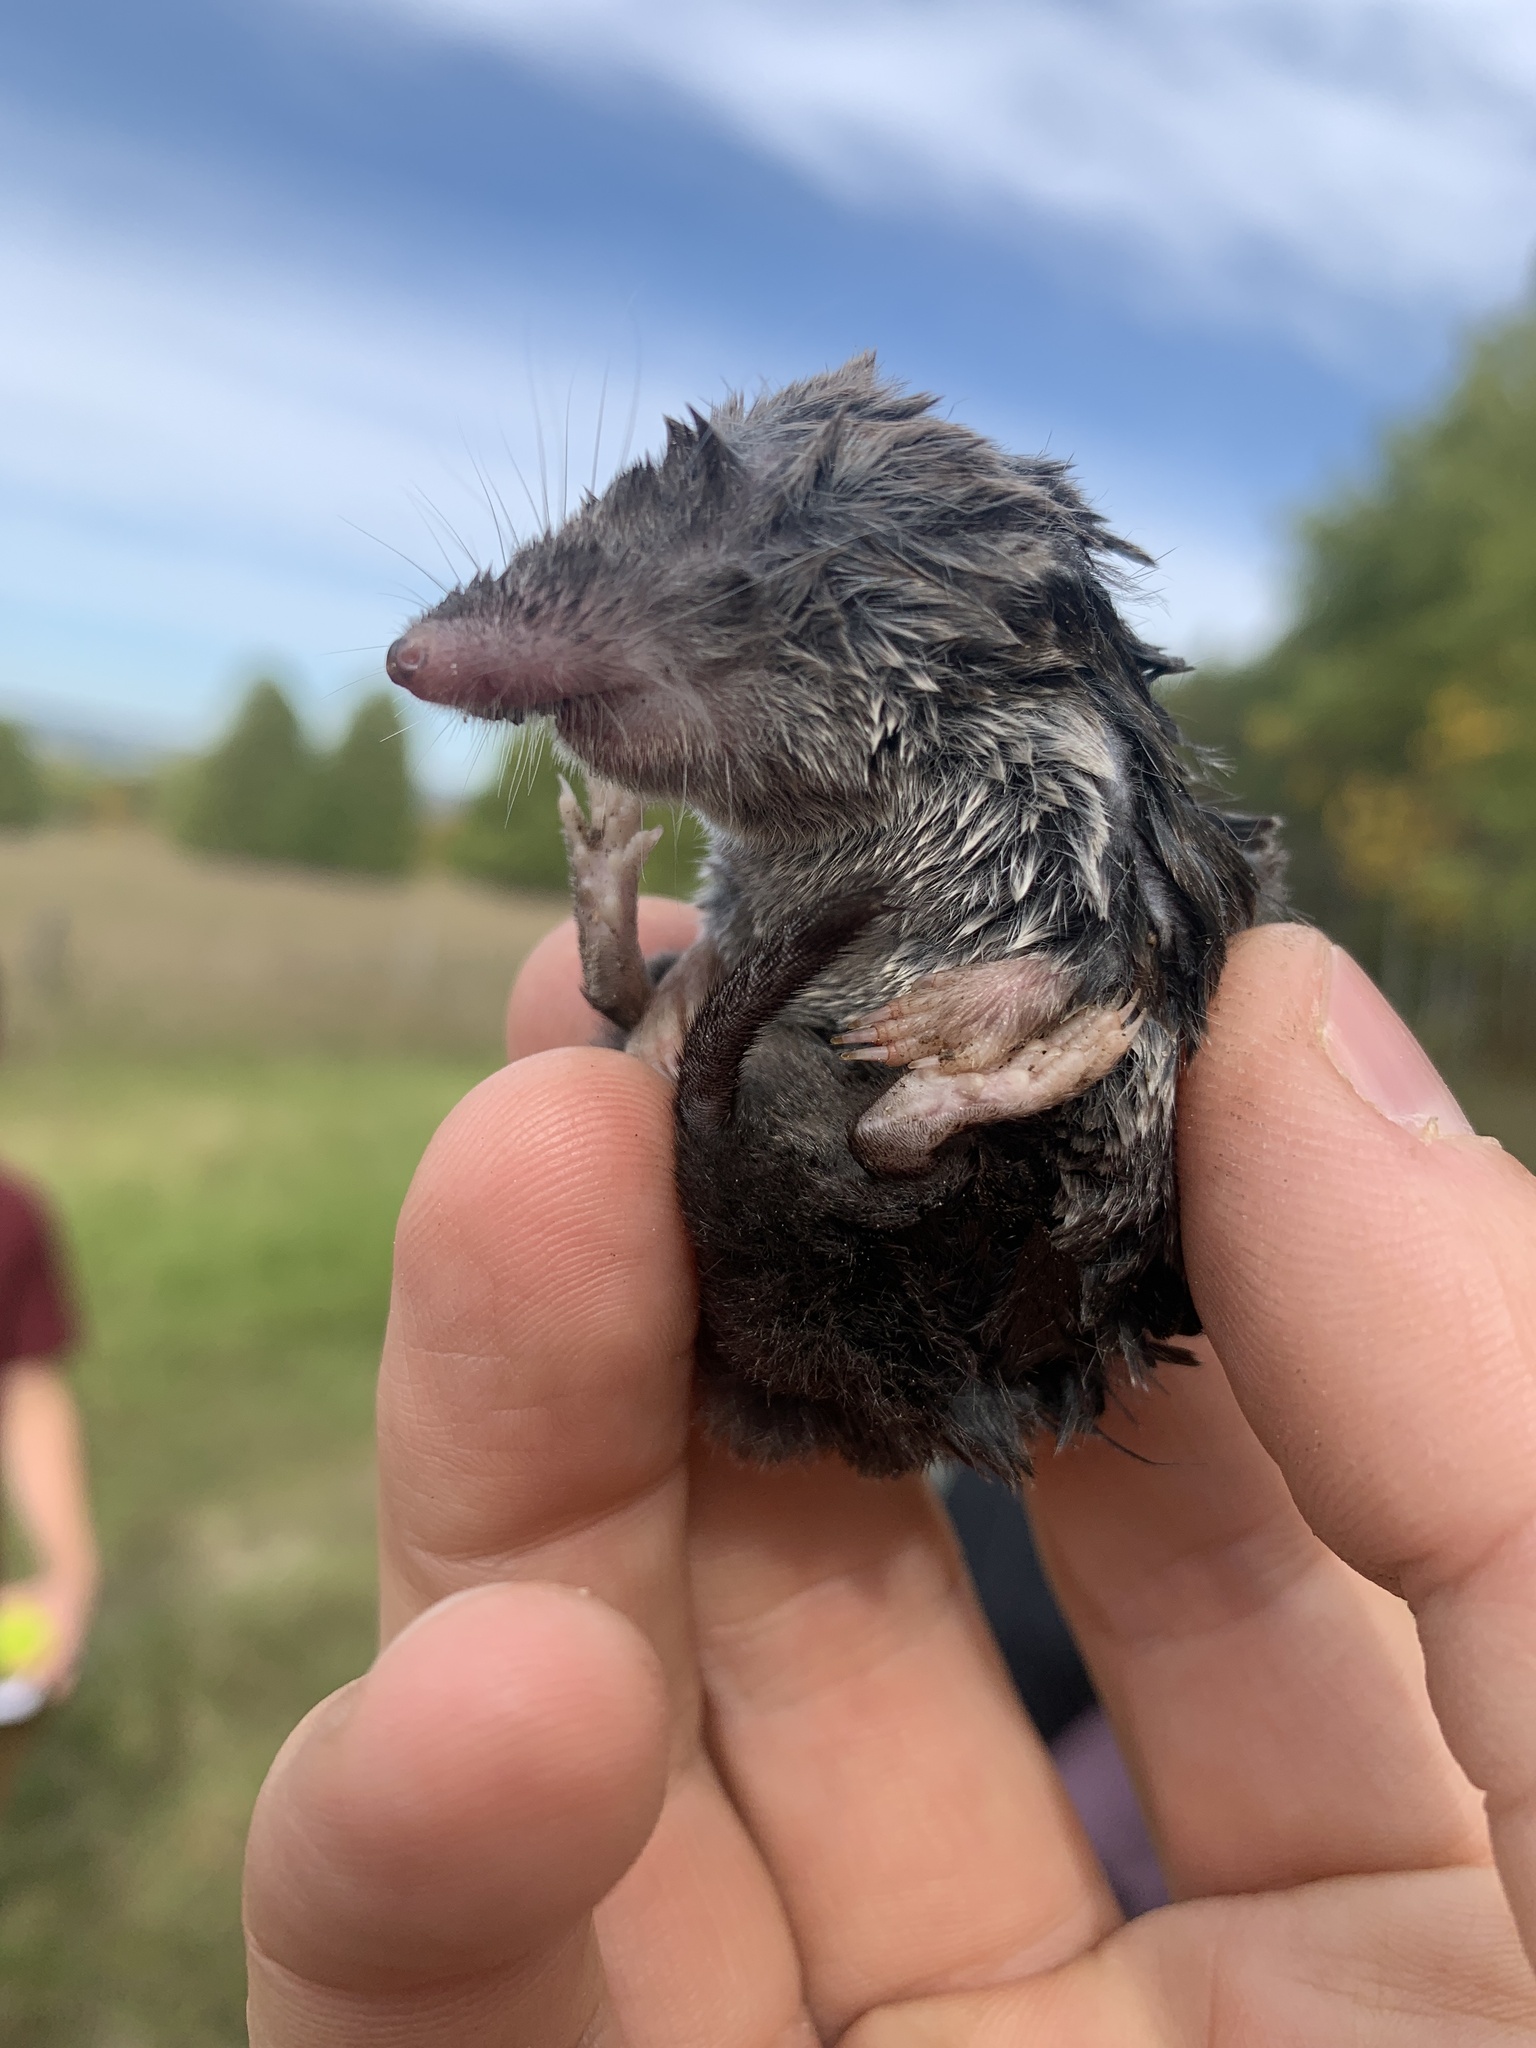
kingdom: Animalia
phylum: Chordata
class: Mammalia
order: Soricomorpha
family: Soricidae
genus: Blarina
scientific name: Blarina brevicauda
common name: Northern short-tailed shrew
